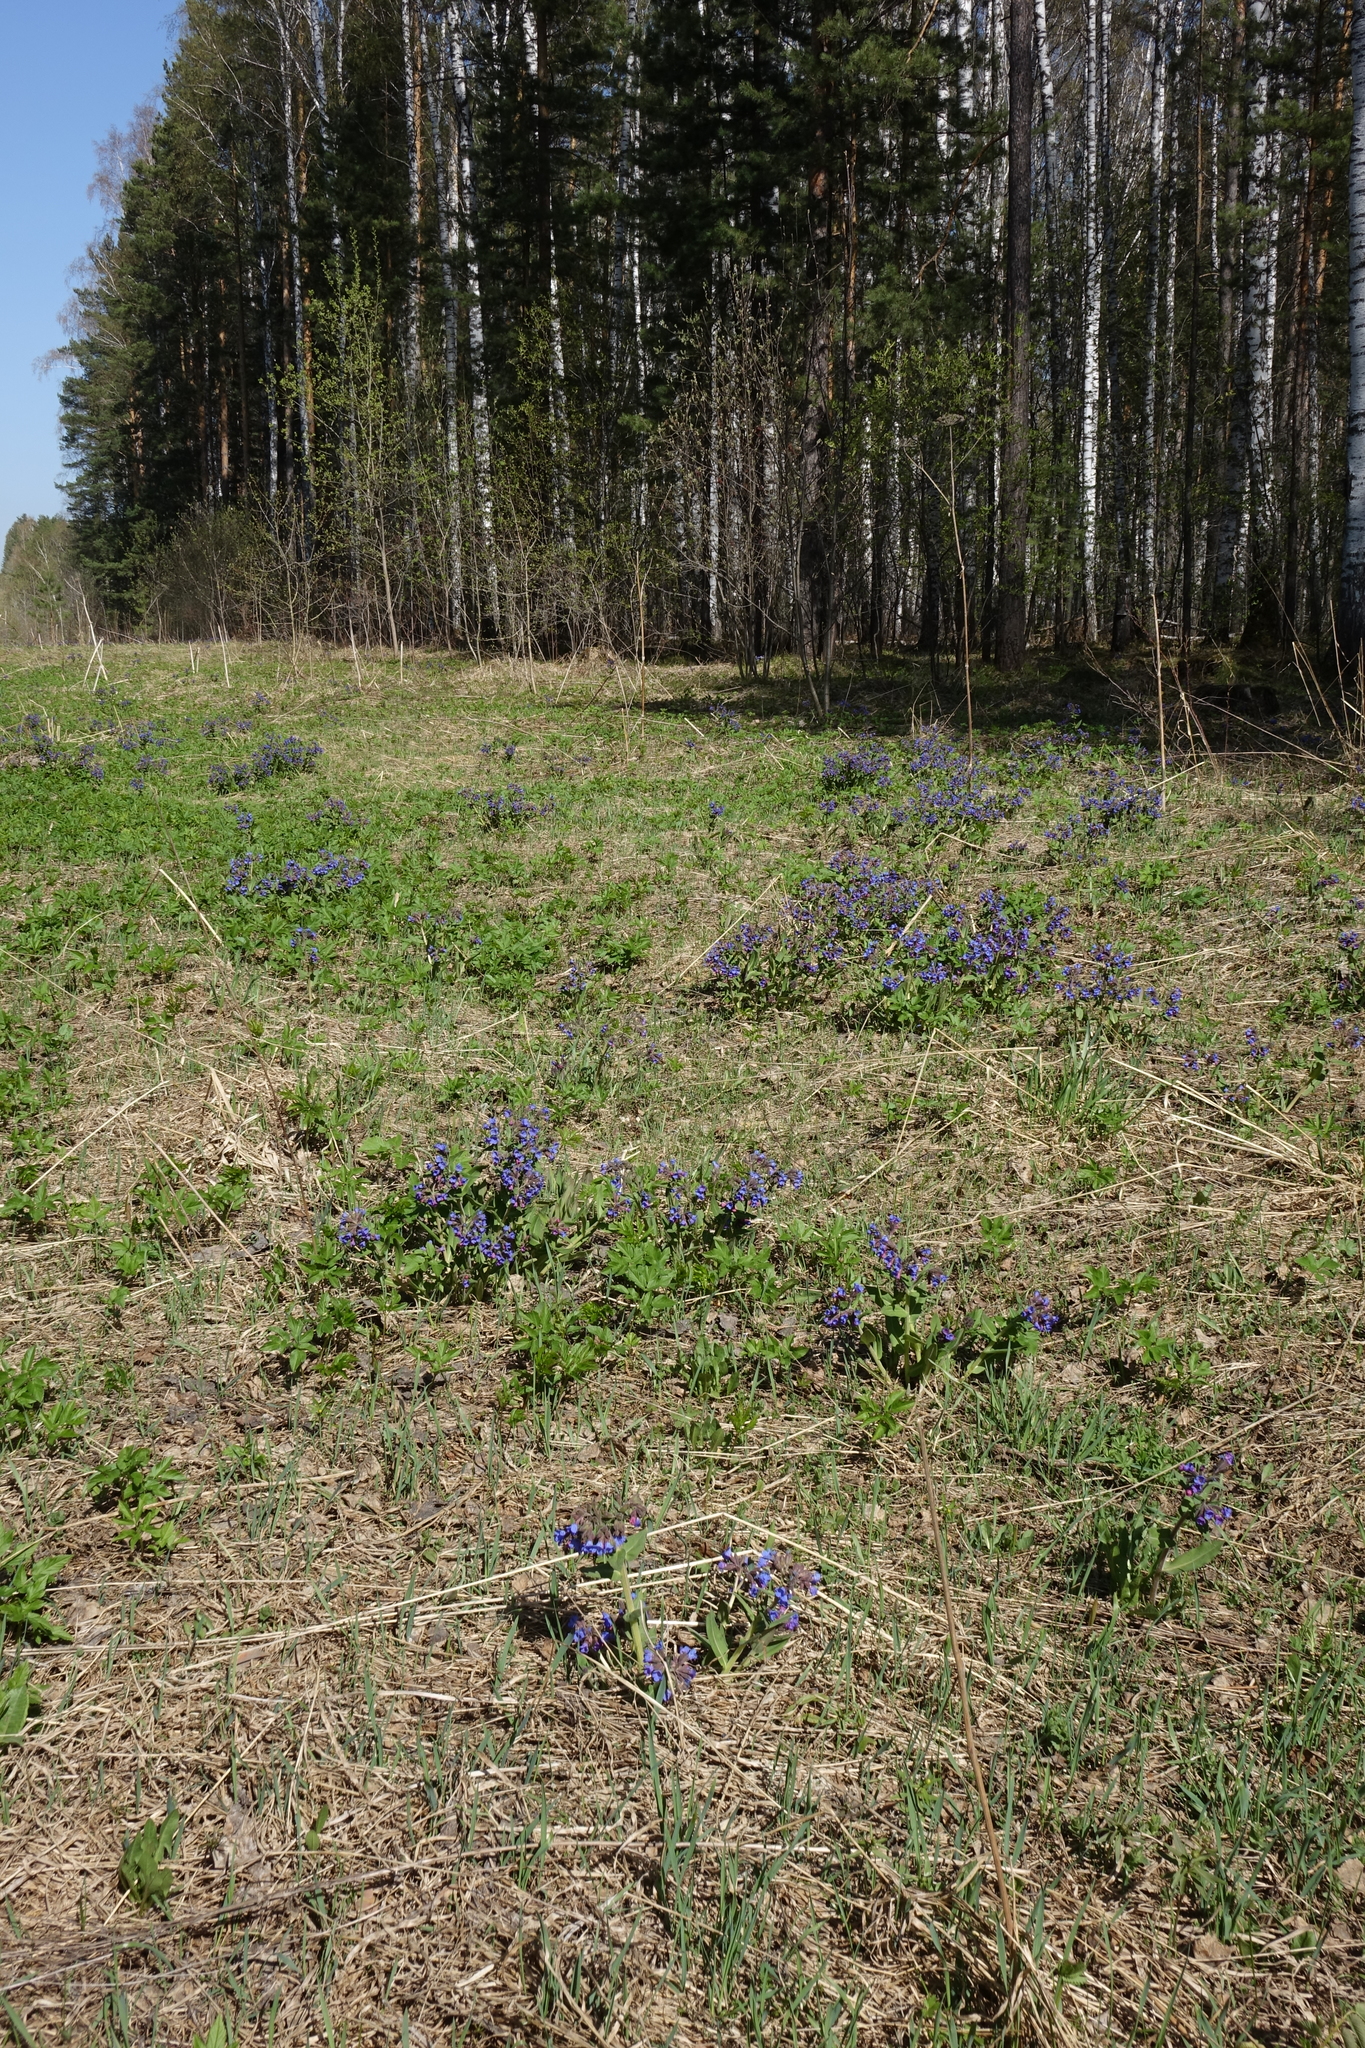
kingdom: Plantae
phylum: Tracheophyta
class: Magnoliopsida
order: Boraginales
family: Boraginaceae
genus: Pulmonaria
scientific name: Pulmonaria mollis
